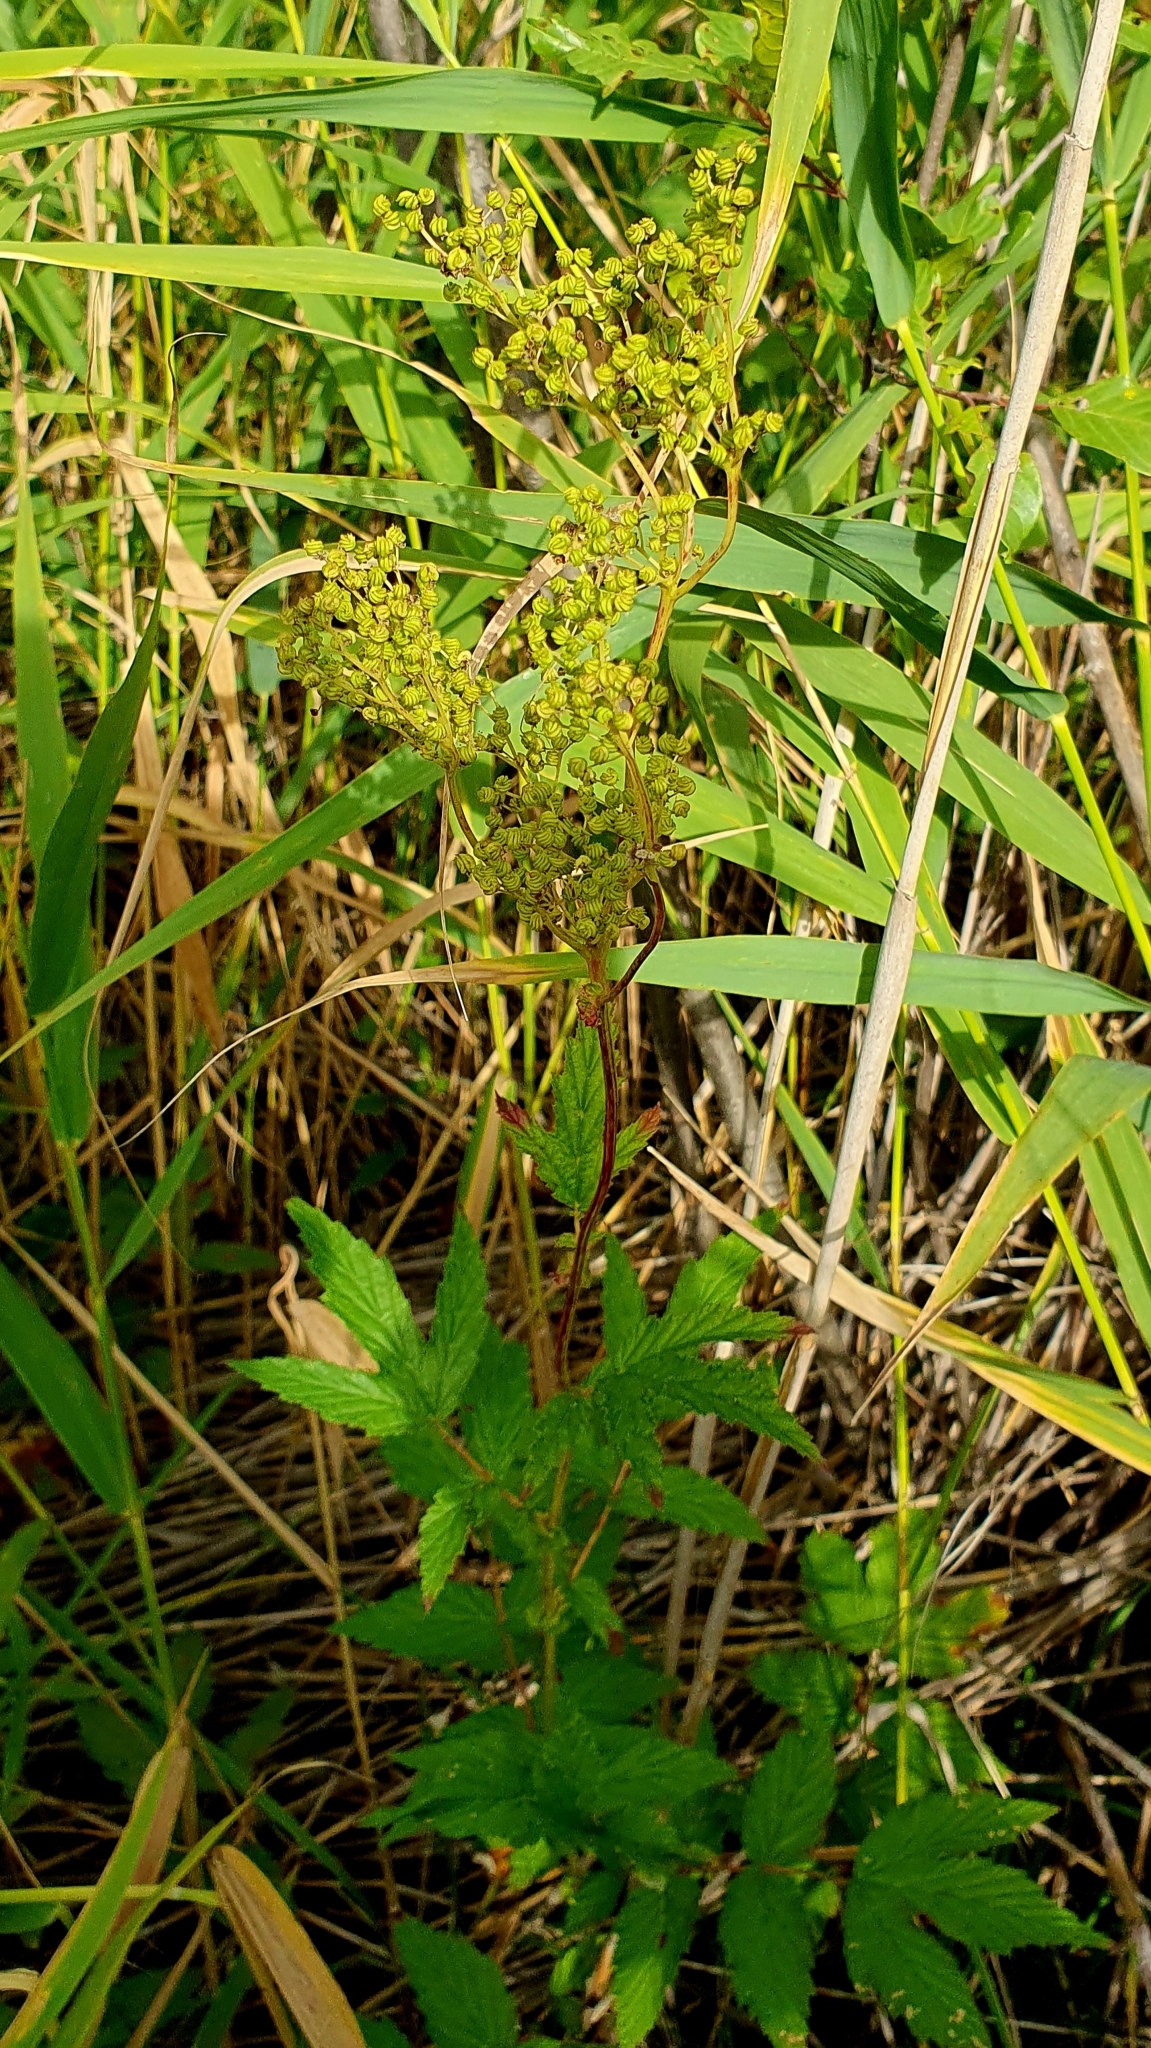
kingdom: Plantae
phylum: Tracheophyta
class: Magnoliopsida
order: Rosales
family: Rosaceae
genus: Filipendula
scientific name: Filipendula ulmaria
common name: Meadowsweet
